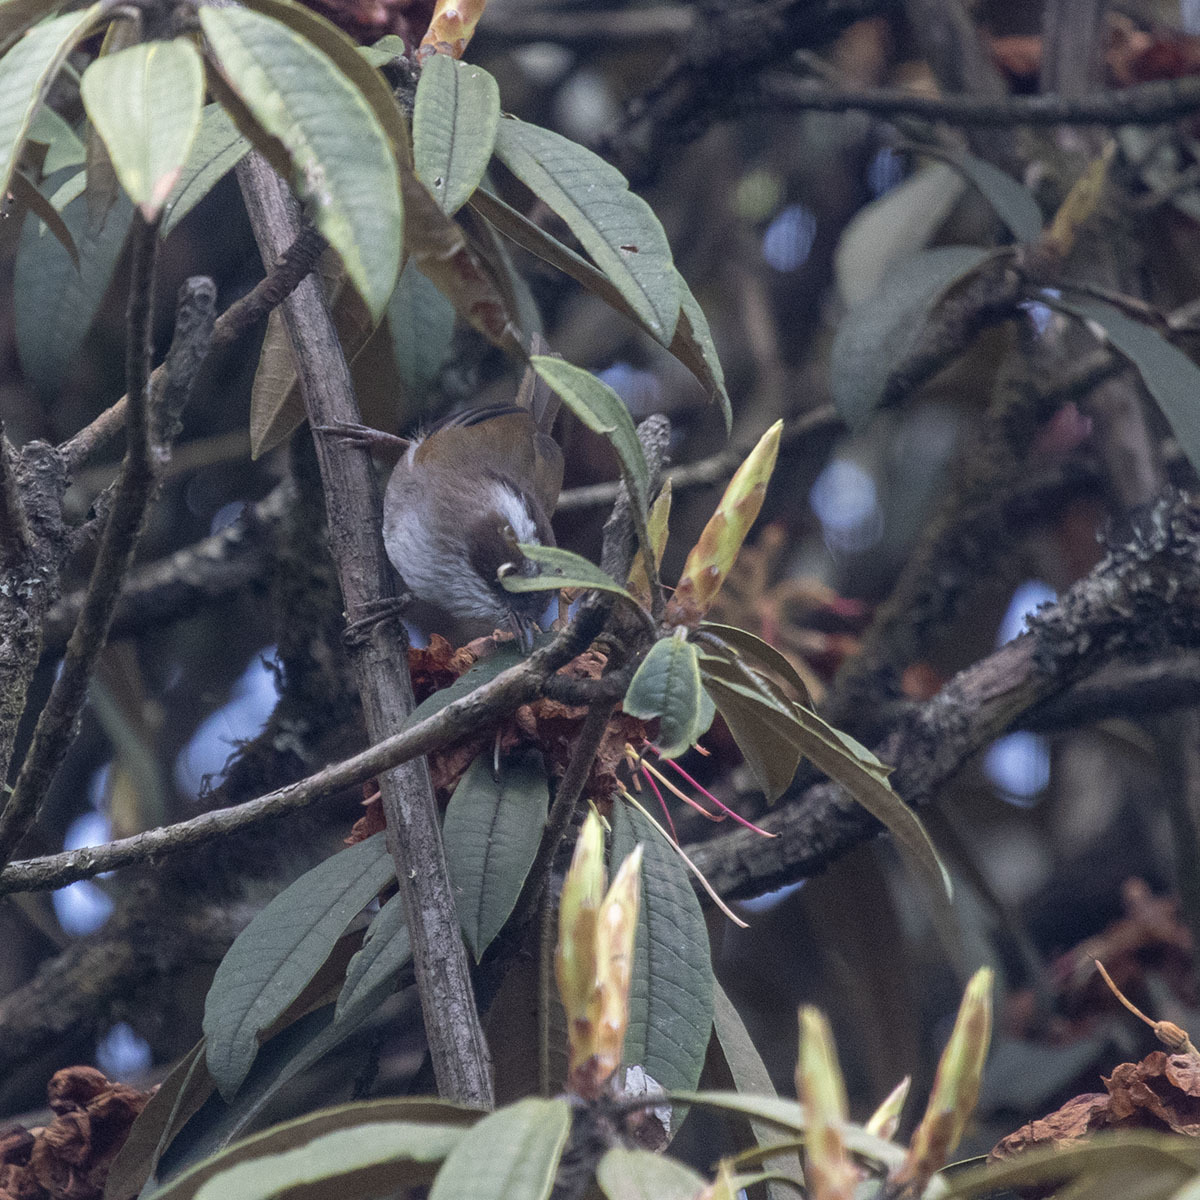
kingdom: Animalia
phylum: Chordata
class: Aves
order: Passeriformes
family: Sylviidae
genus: Fulvetta
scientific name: Fulvetta vinipectus
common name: White-browed fulvetta
